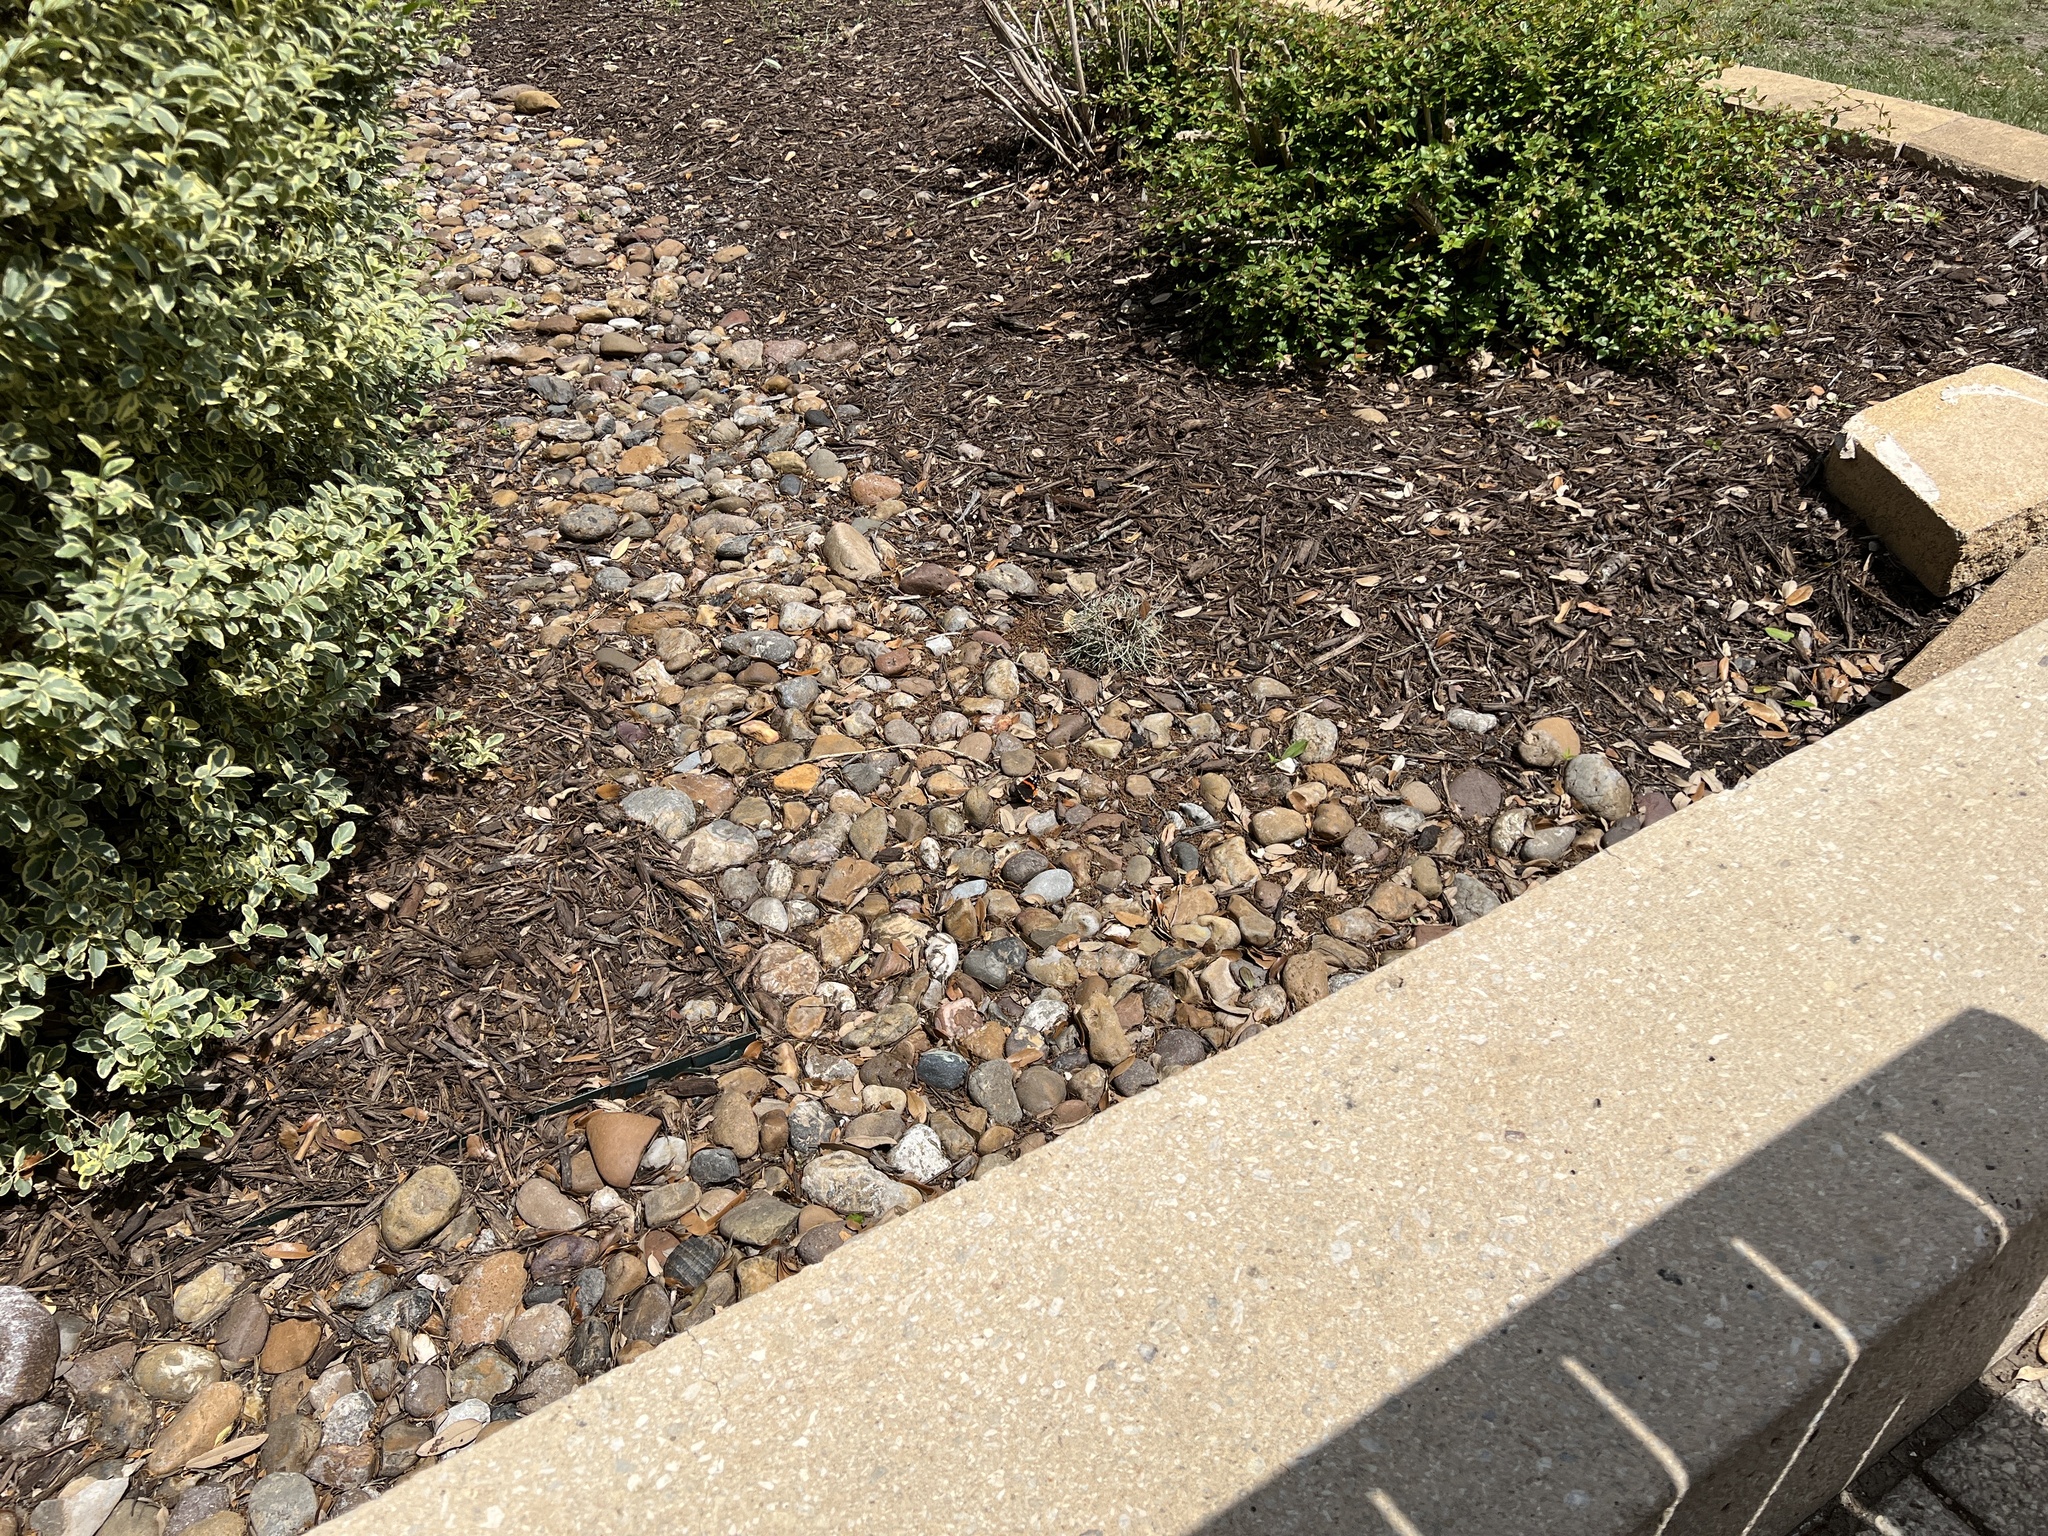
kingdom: Animalia
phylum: Arthropoda
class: Insecta
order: Lepidoptera
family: Nymphalidae
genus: Vanessa
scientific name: Vanessa atalanta
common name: Red admiral
